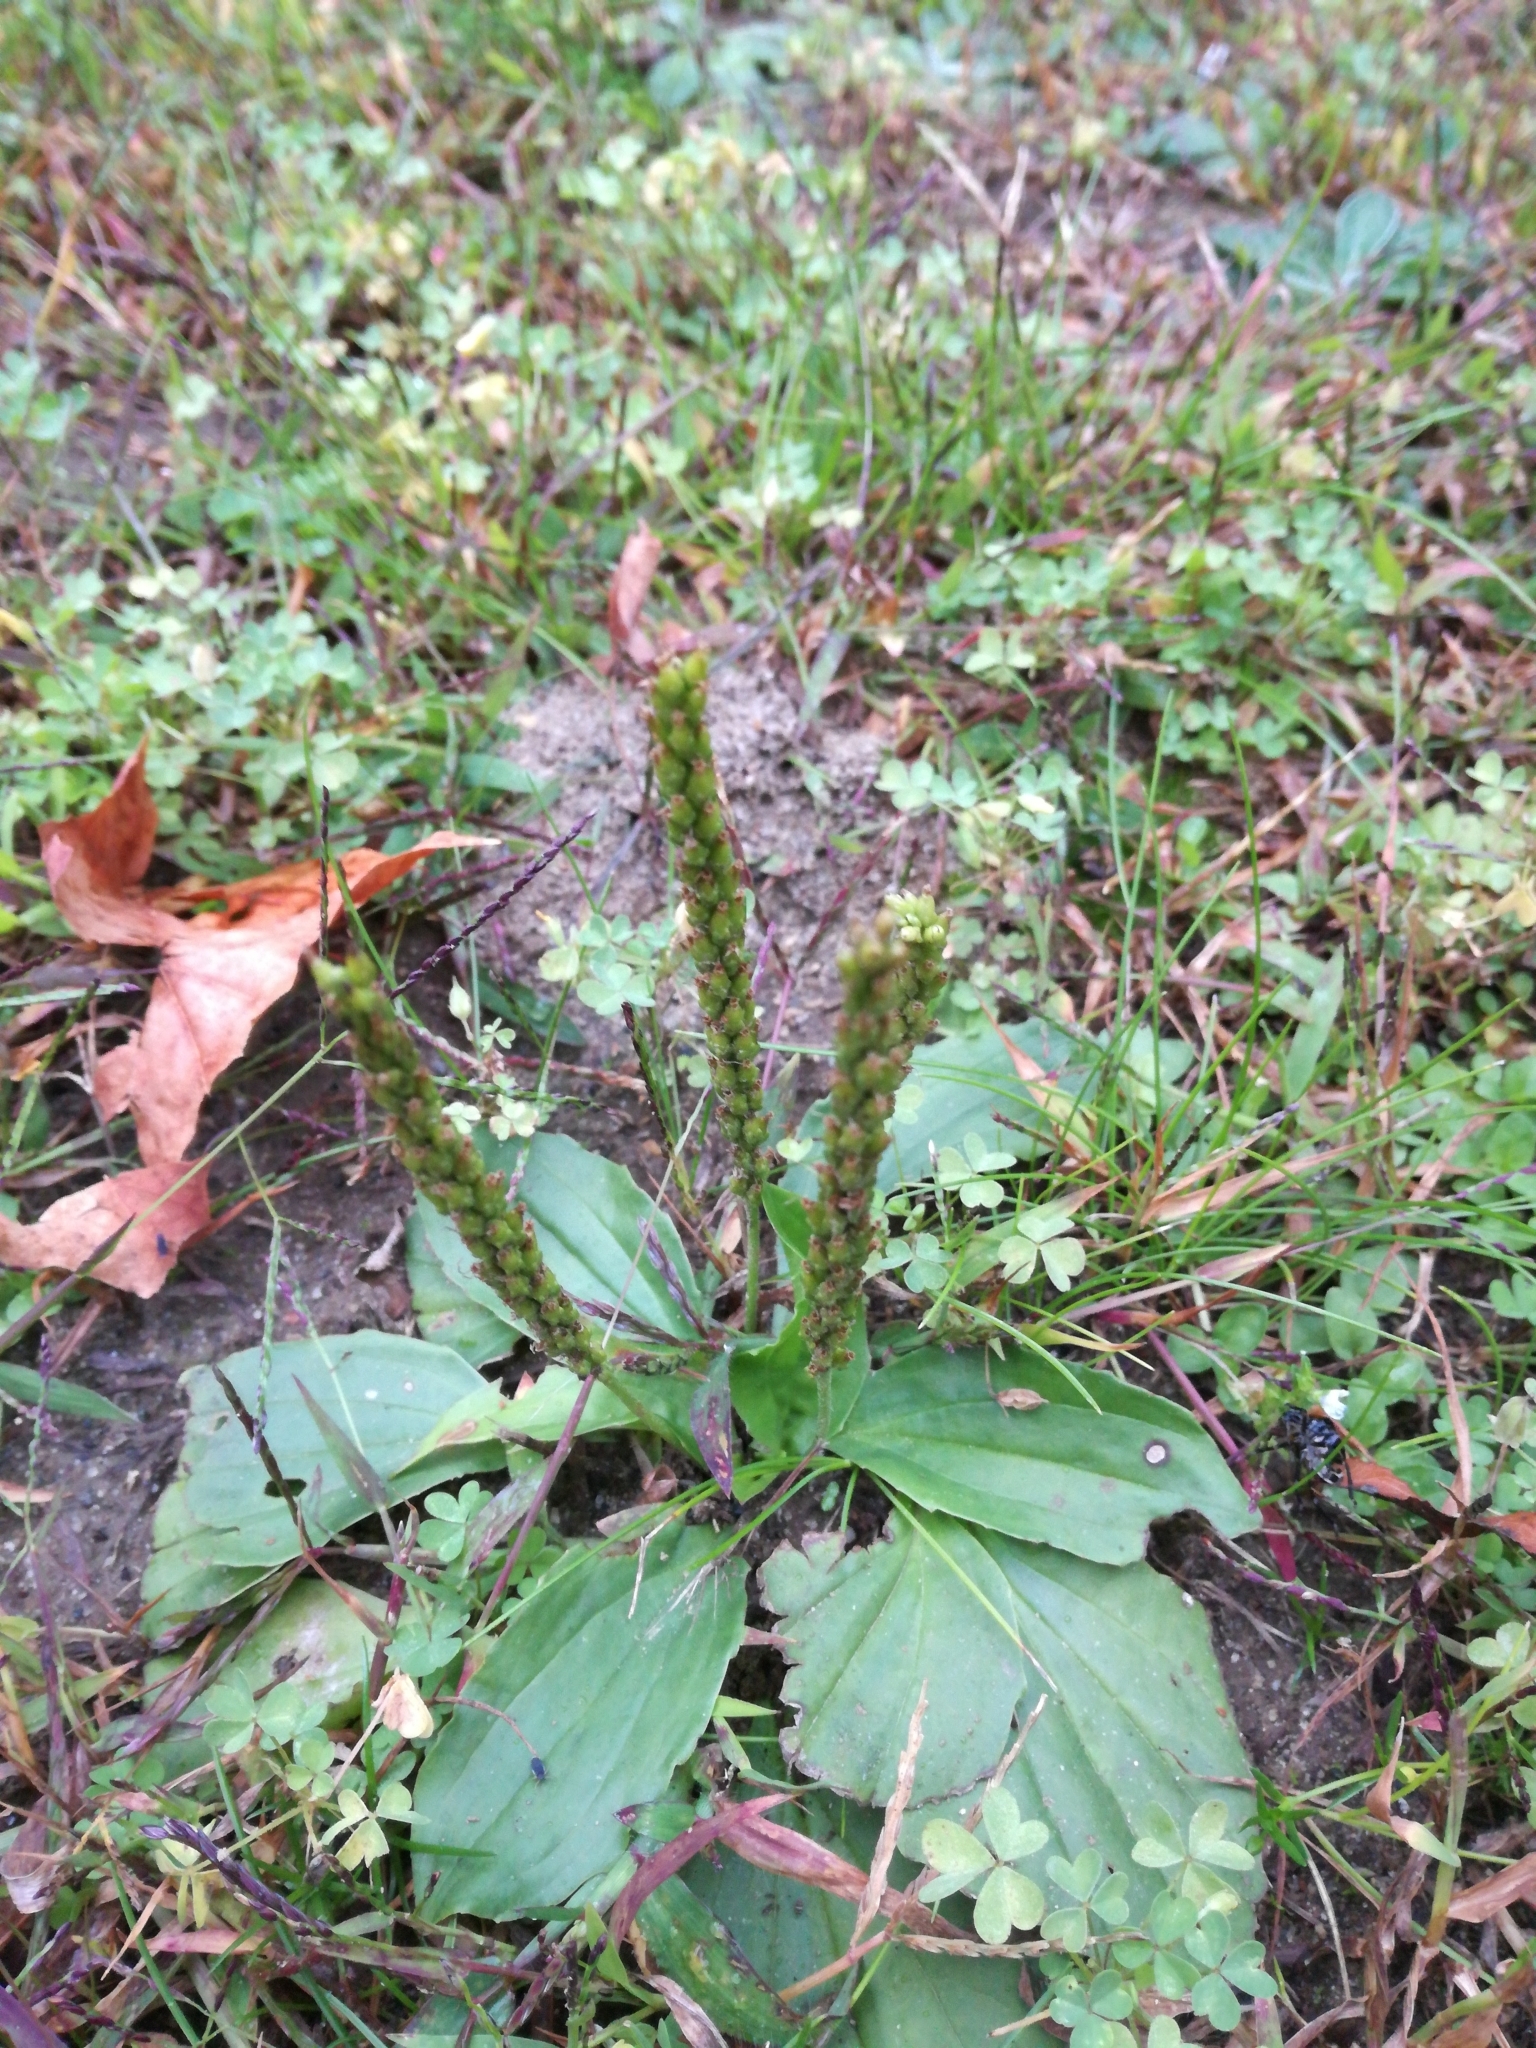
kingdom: Plantae
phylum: Tracheophyta
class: Magnoliopsida
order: Lamiales
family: Plantaginaceae
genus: Plantago
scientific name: Plantago major
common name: Common plantain
